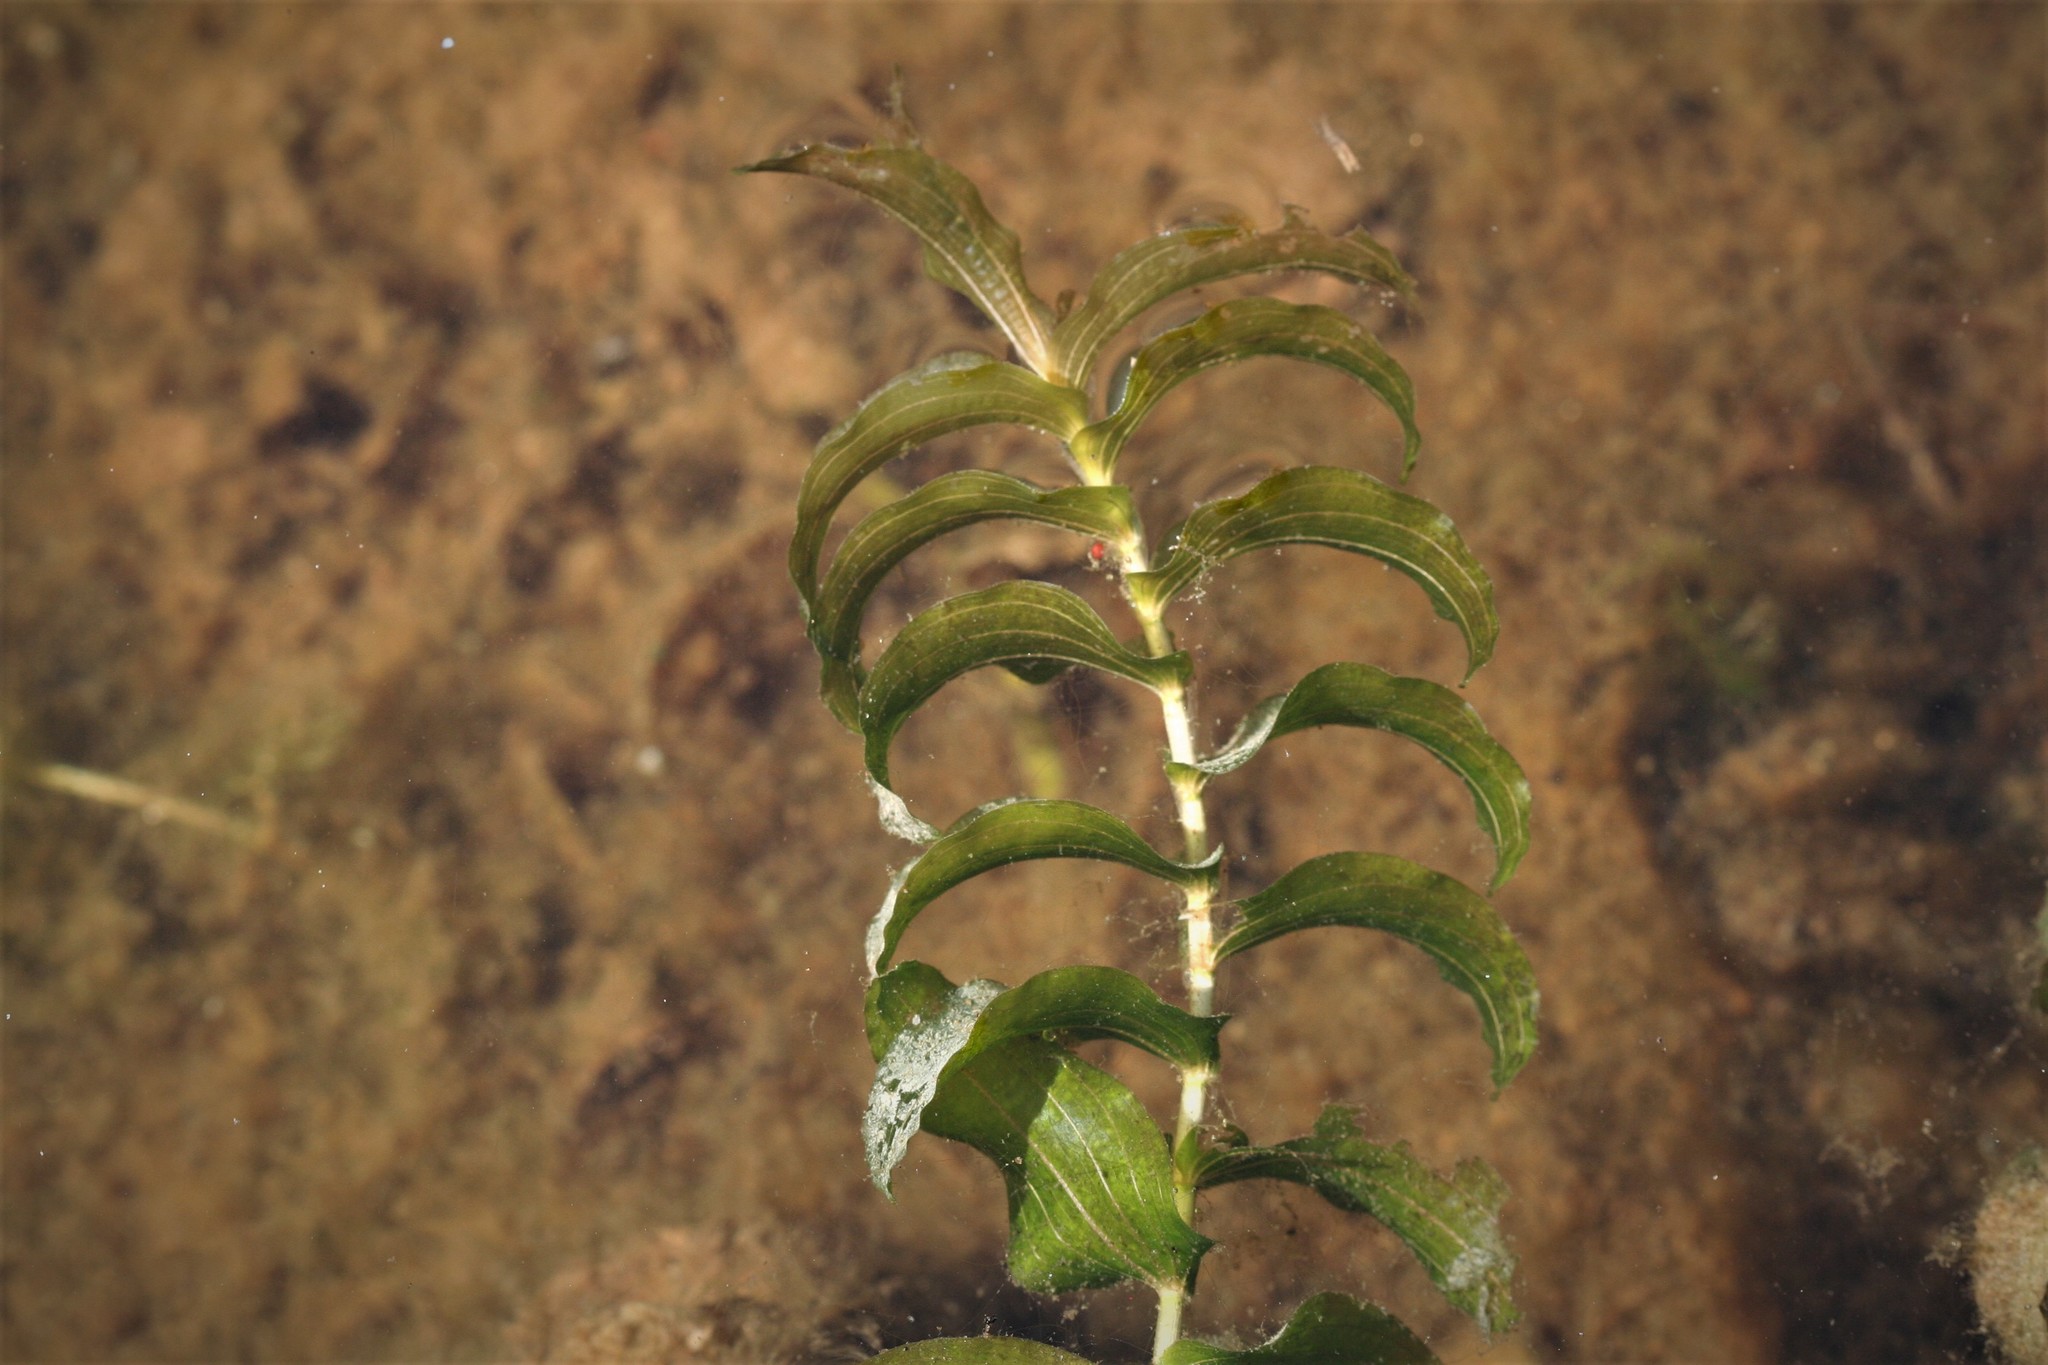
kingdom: Plantae
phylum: Tracheophyta
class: Liliopsida
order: Alismatales
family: Potamogetonaceae
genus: Potamogeton
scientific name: Potamogeton perfoliatus
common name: Perfoliate pondweed
